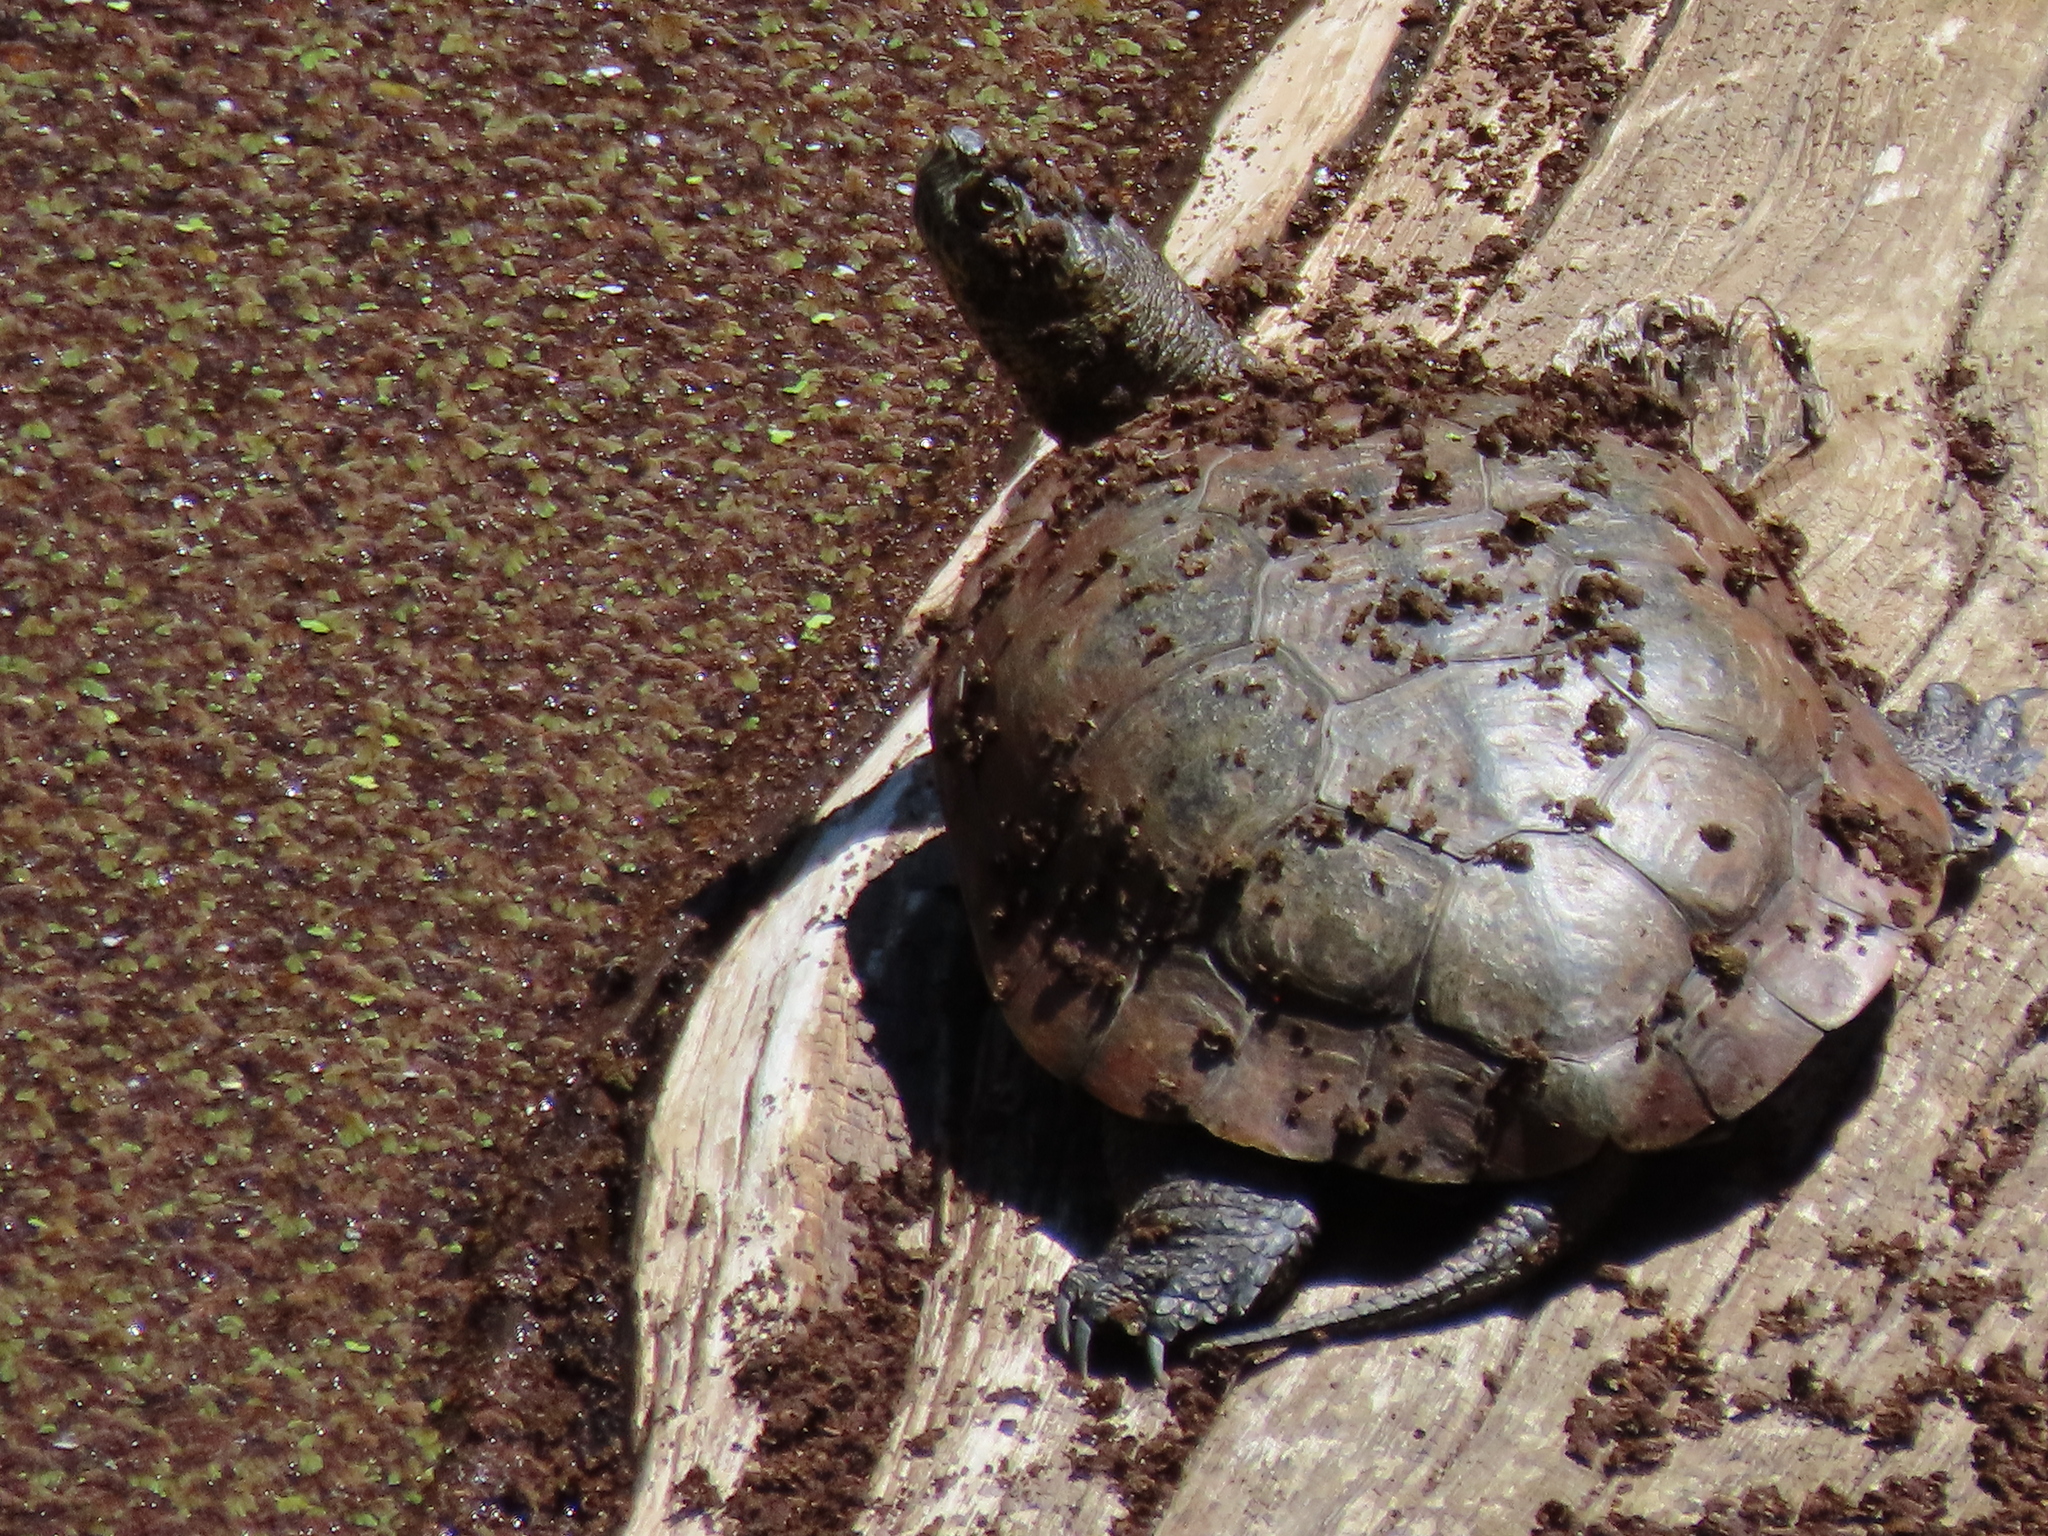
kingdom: Plantae
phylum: Tracheophyta
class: Polypodiopsida
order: Salviniales
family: Salviniaceae
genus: Azolla
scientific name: Azolla filiculoides
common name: Water fern
